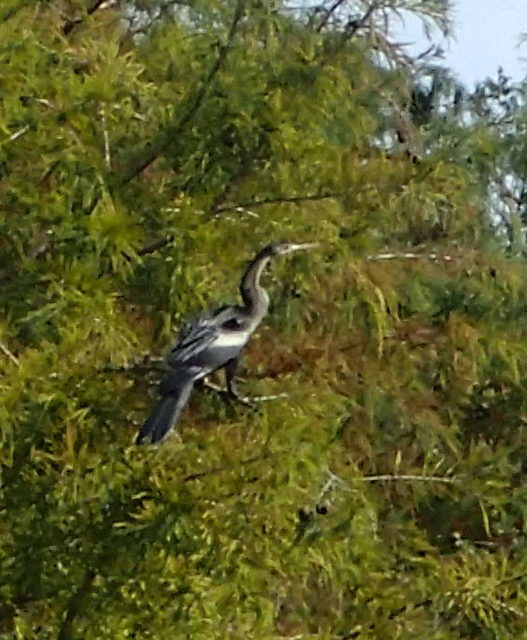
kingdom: Animalia
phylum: Chordata
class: Aves
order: Suliformes
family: Anhingidae
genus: Anhinga
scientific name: Anhinga anhinga
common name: Anhinga
